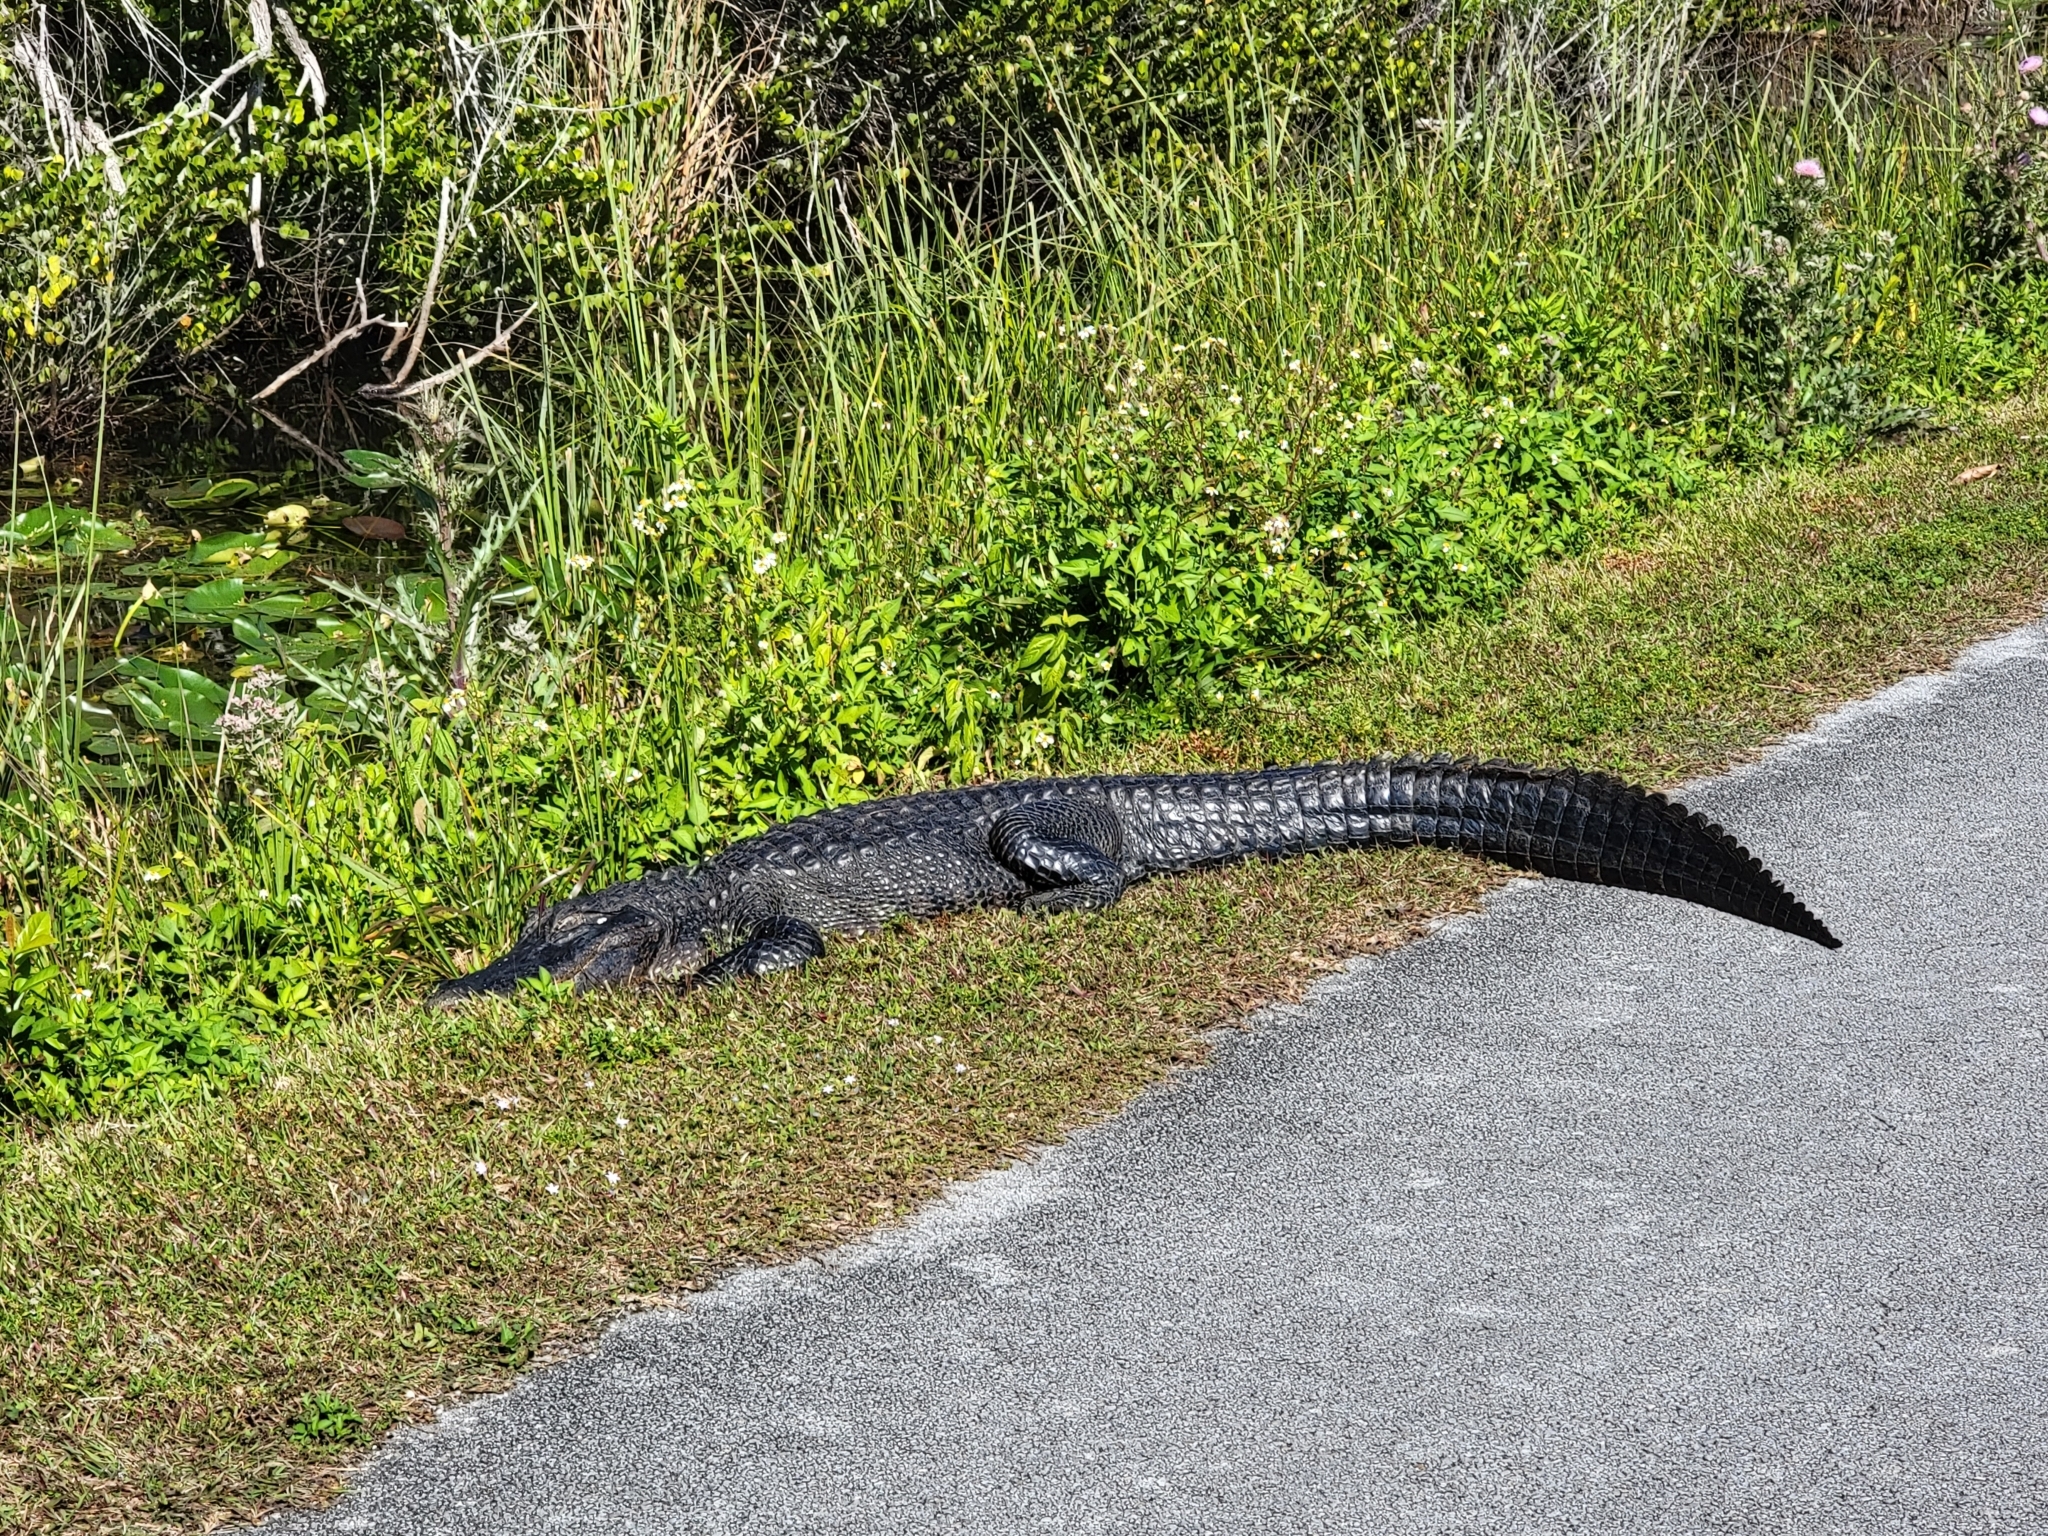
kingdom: Animalia
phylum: Chordata
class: Crocodylia
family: Alligatoridae
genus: Alligator
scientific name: Alligator mississippiensis
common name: American alligator
